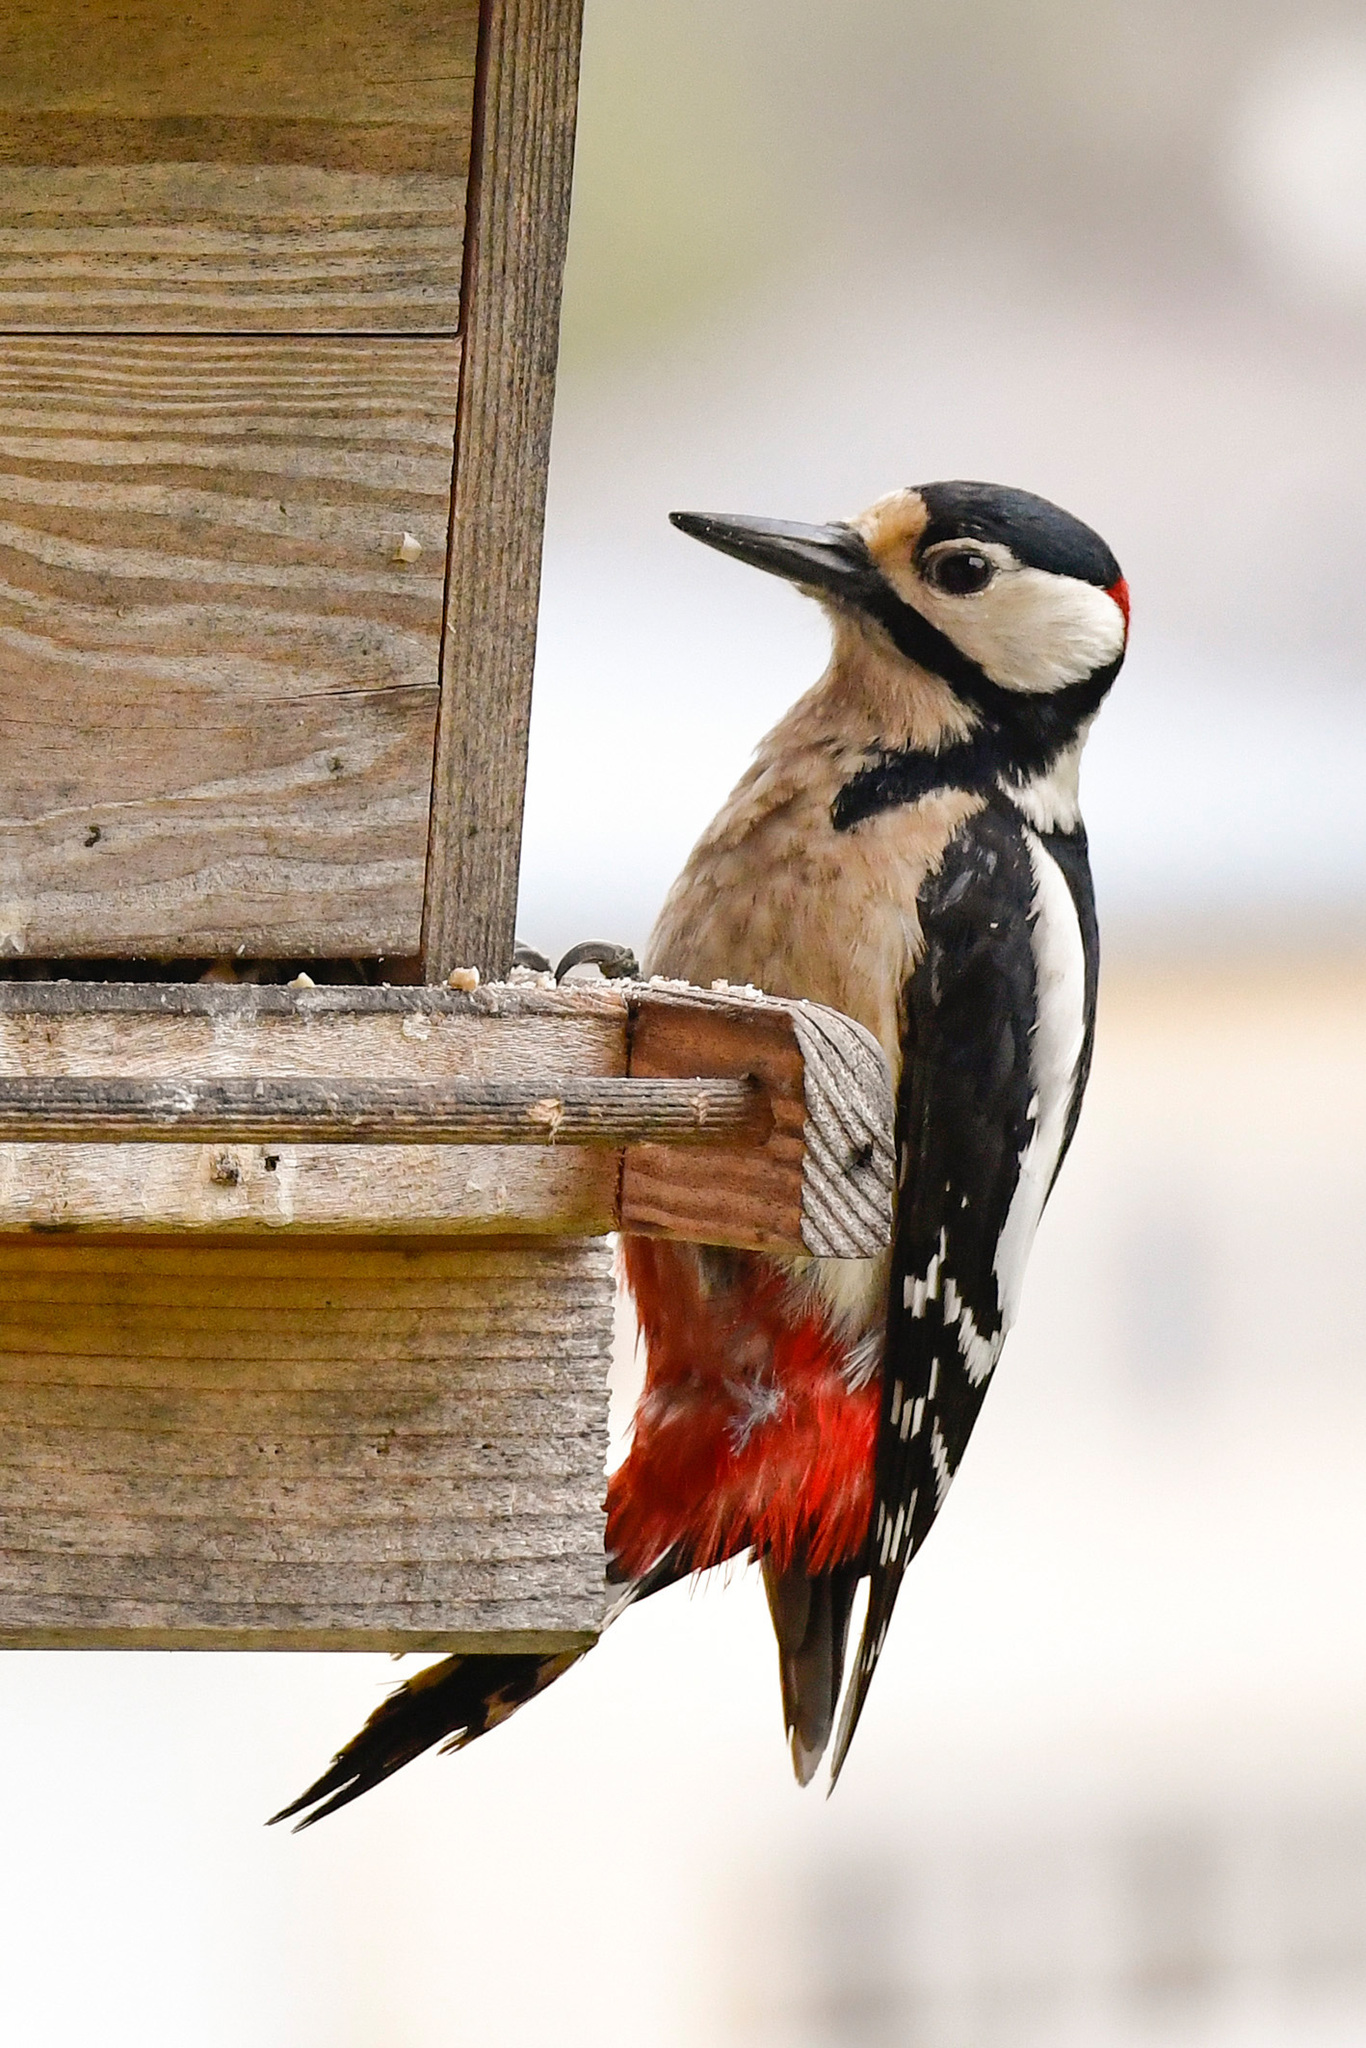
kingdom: Animalia
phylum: Chordata
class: Aves
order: Piciformes
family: Picidae
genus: Dendrocopos
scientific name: Dendrocopos major
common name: Great spotted woodpecker
